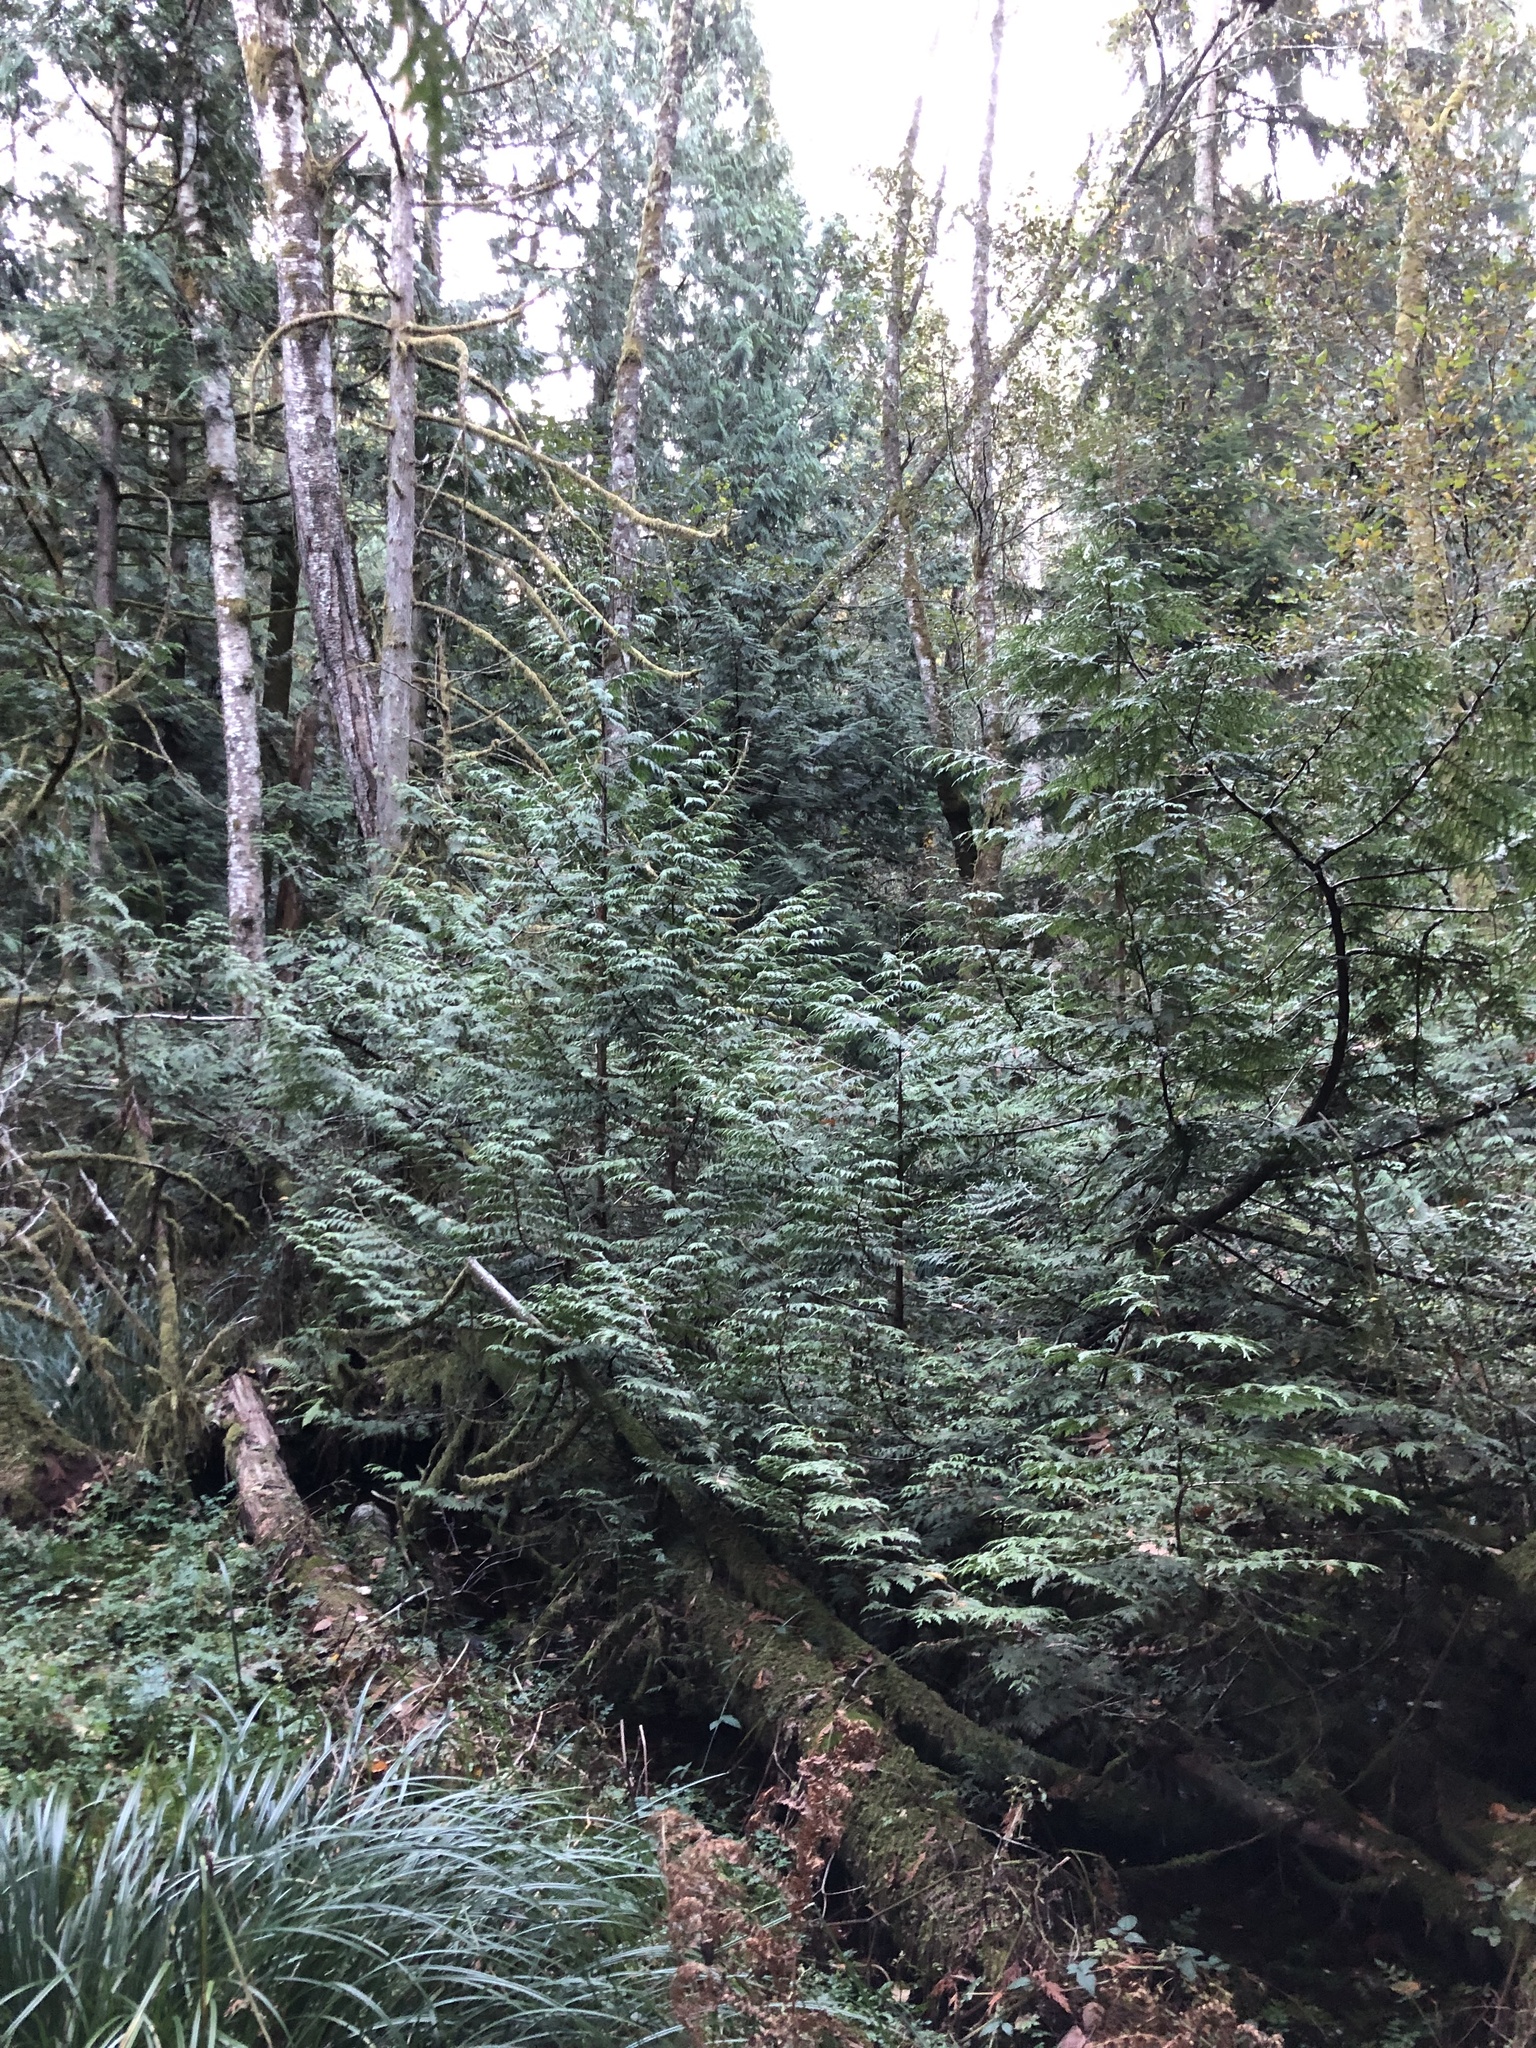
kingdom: Plantae
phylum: Tracheophyta
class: Pinopsida
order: Pinales
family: Cupressaceae
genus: Thuja
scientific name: Thuja plicata
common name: Western red-cedar
